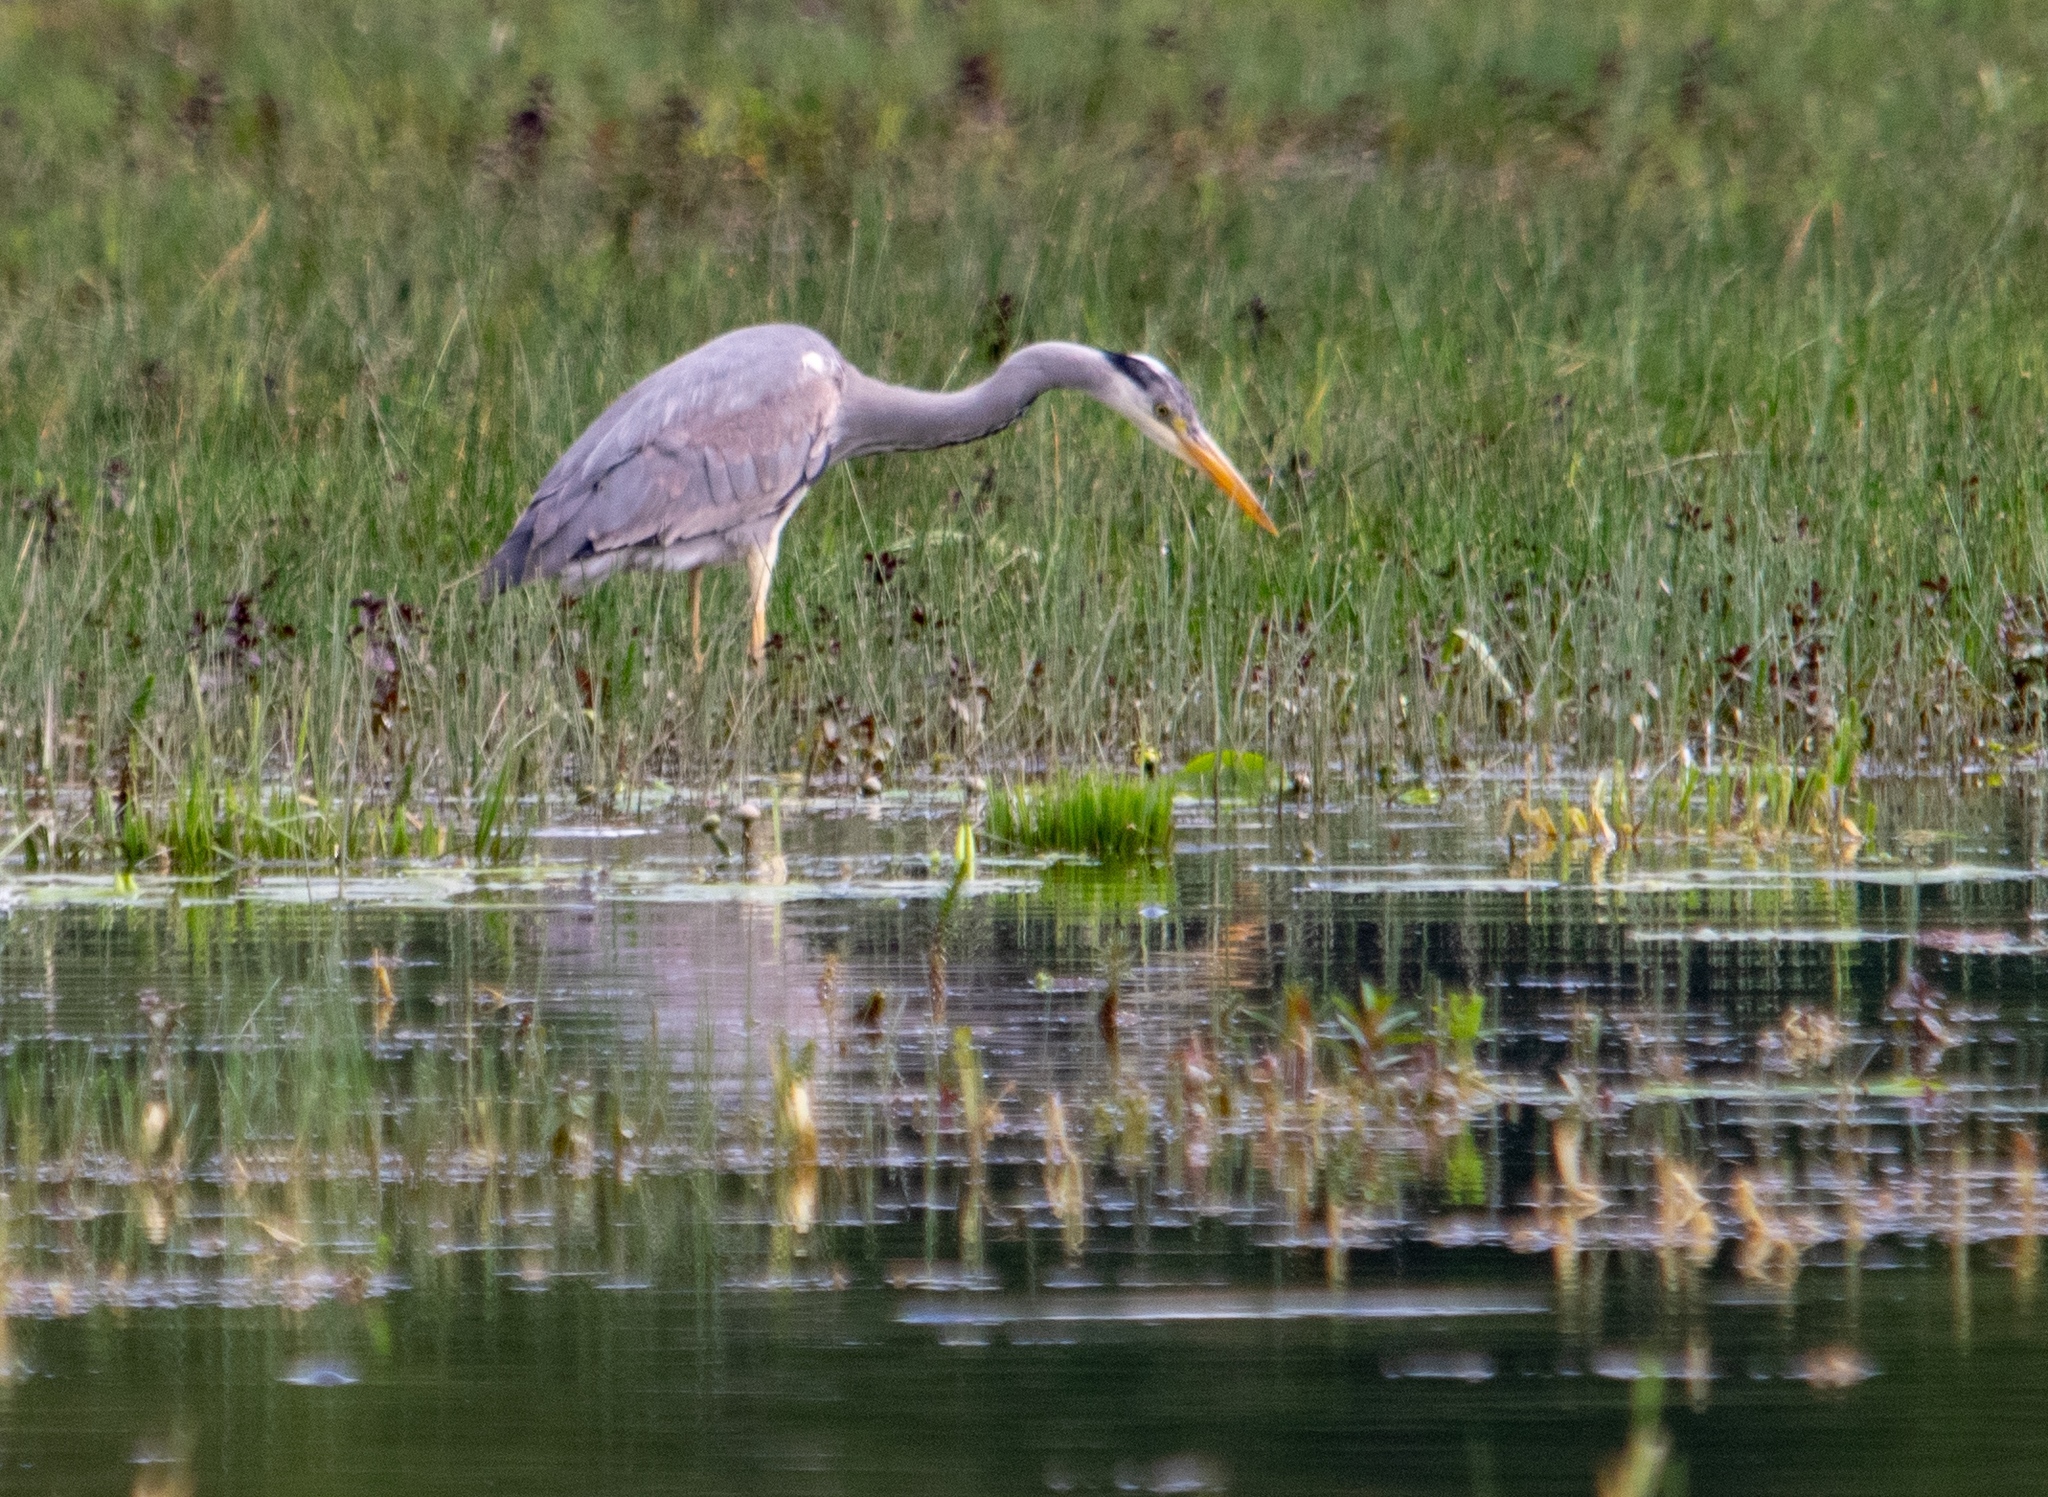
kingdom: Animalia
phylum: Chordata
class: Aves
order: Pelecaniformes
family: Ardeidae
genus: Ardea
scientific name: Ardea cinerea
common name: Grey heron
